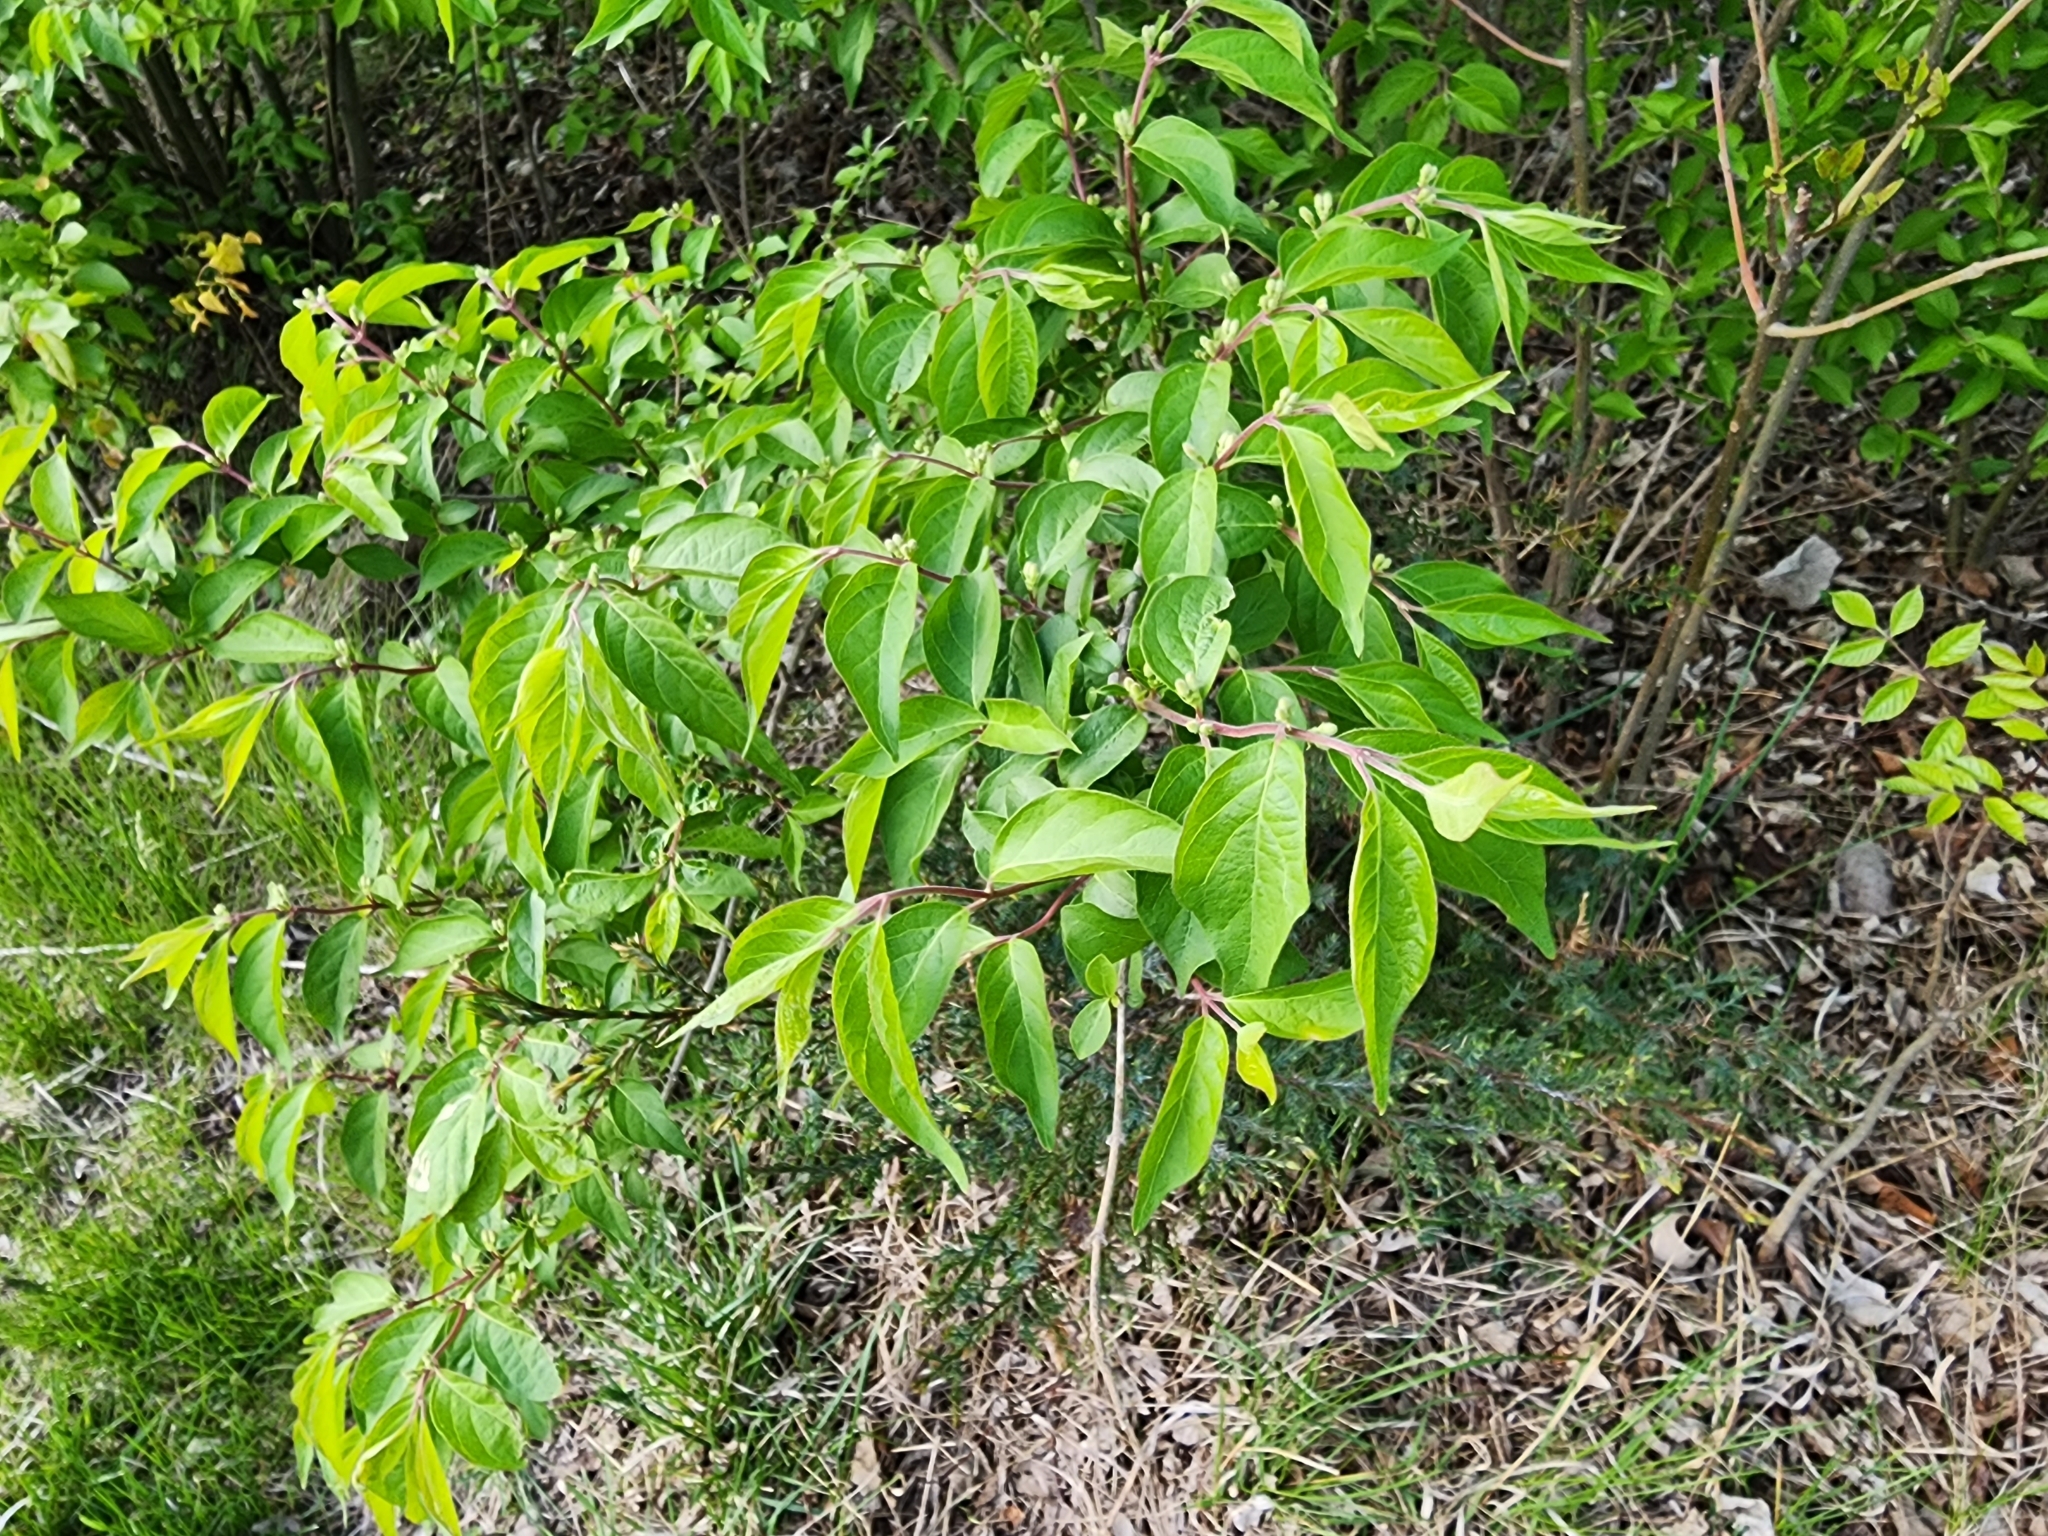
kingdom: Plantae
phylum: Tracheophyta
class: Magnoliopsida
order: Dipsacales
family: Caprifoliaceae
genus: Lonicera
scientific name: Lonicera maackii
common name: Amur honeysuckle
